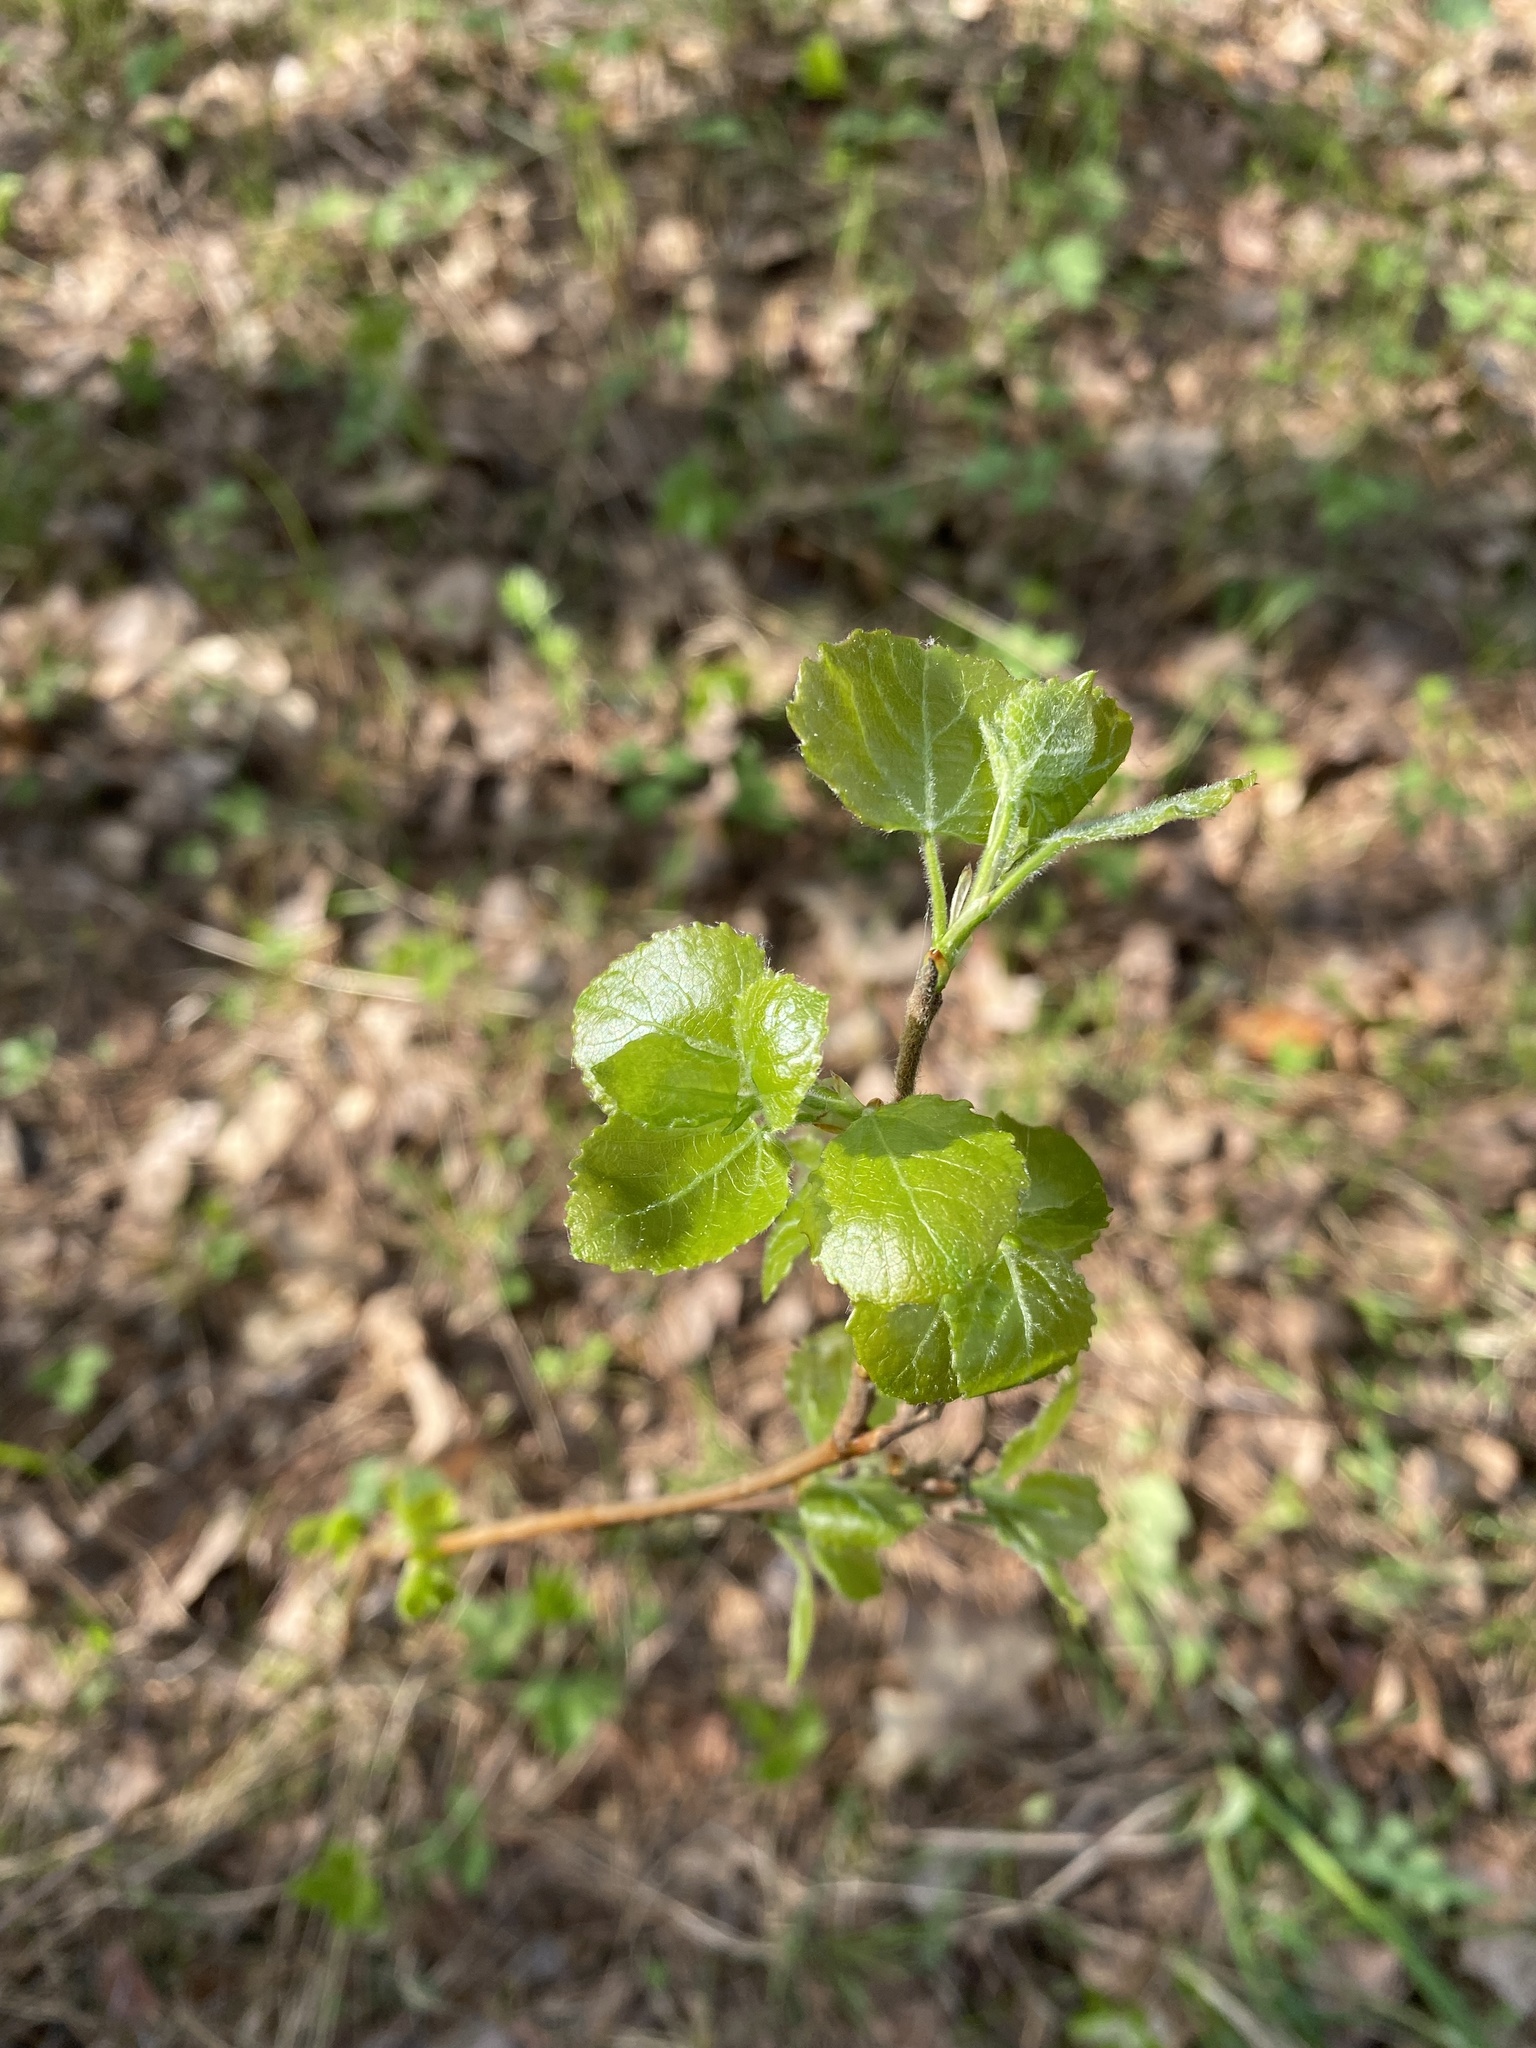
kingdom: Plantae
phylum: Tracheophyta
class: Magnoliopsida
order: Malpighiales
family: Salicaceae
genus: Populus
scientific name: Populus tremula
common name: European aspen
